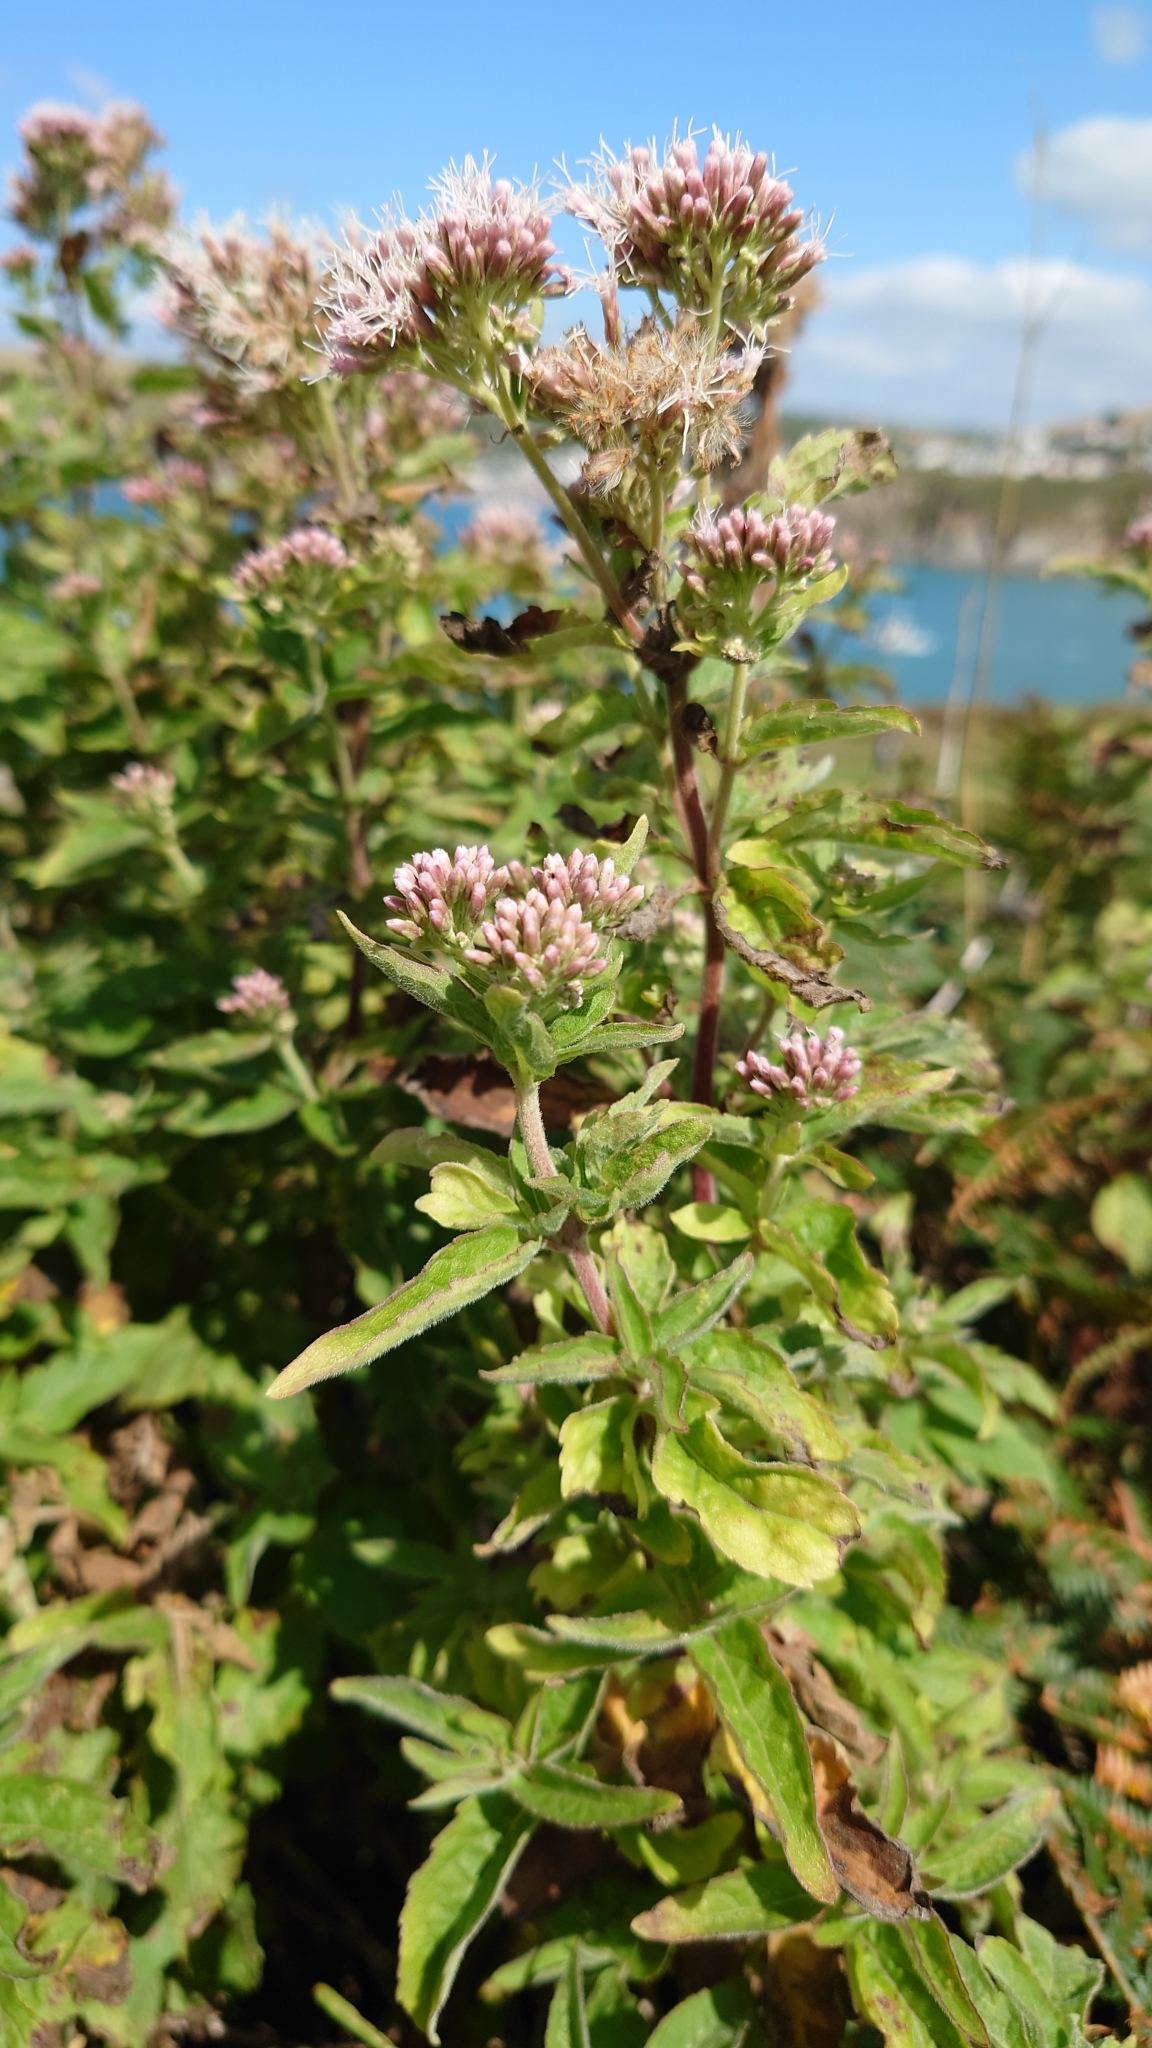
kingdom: Plantae
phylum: Tracheophyta
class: Magnoliopsida
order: Asterales
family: Asteraceae
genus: Eupatorium
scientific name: Eupatorium cannabinum
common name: Hemp-agrimony
